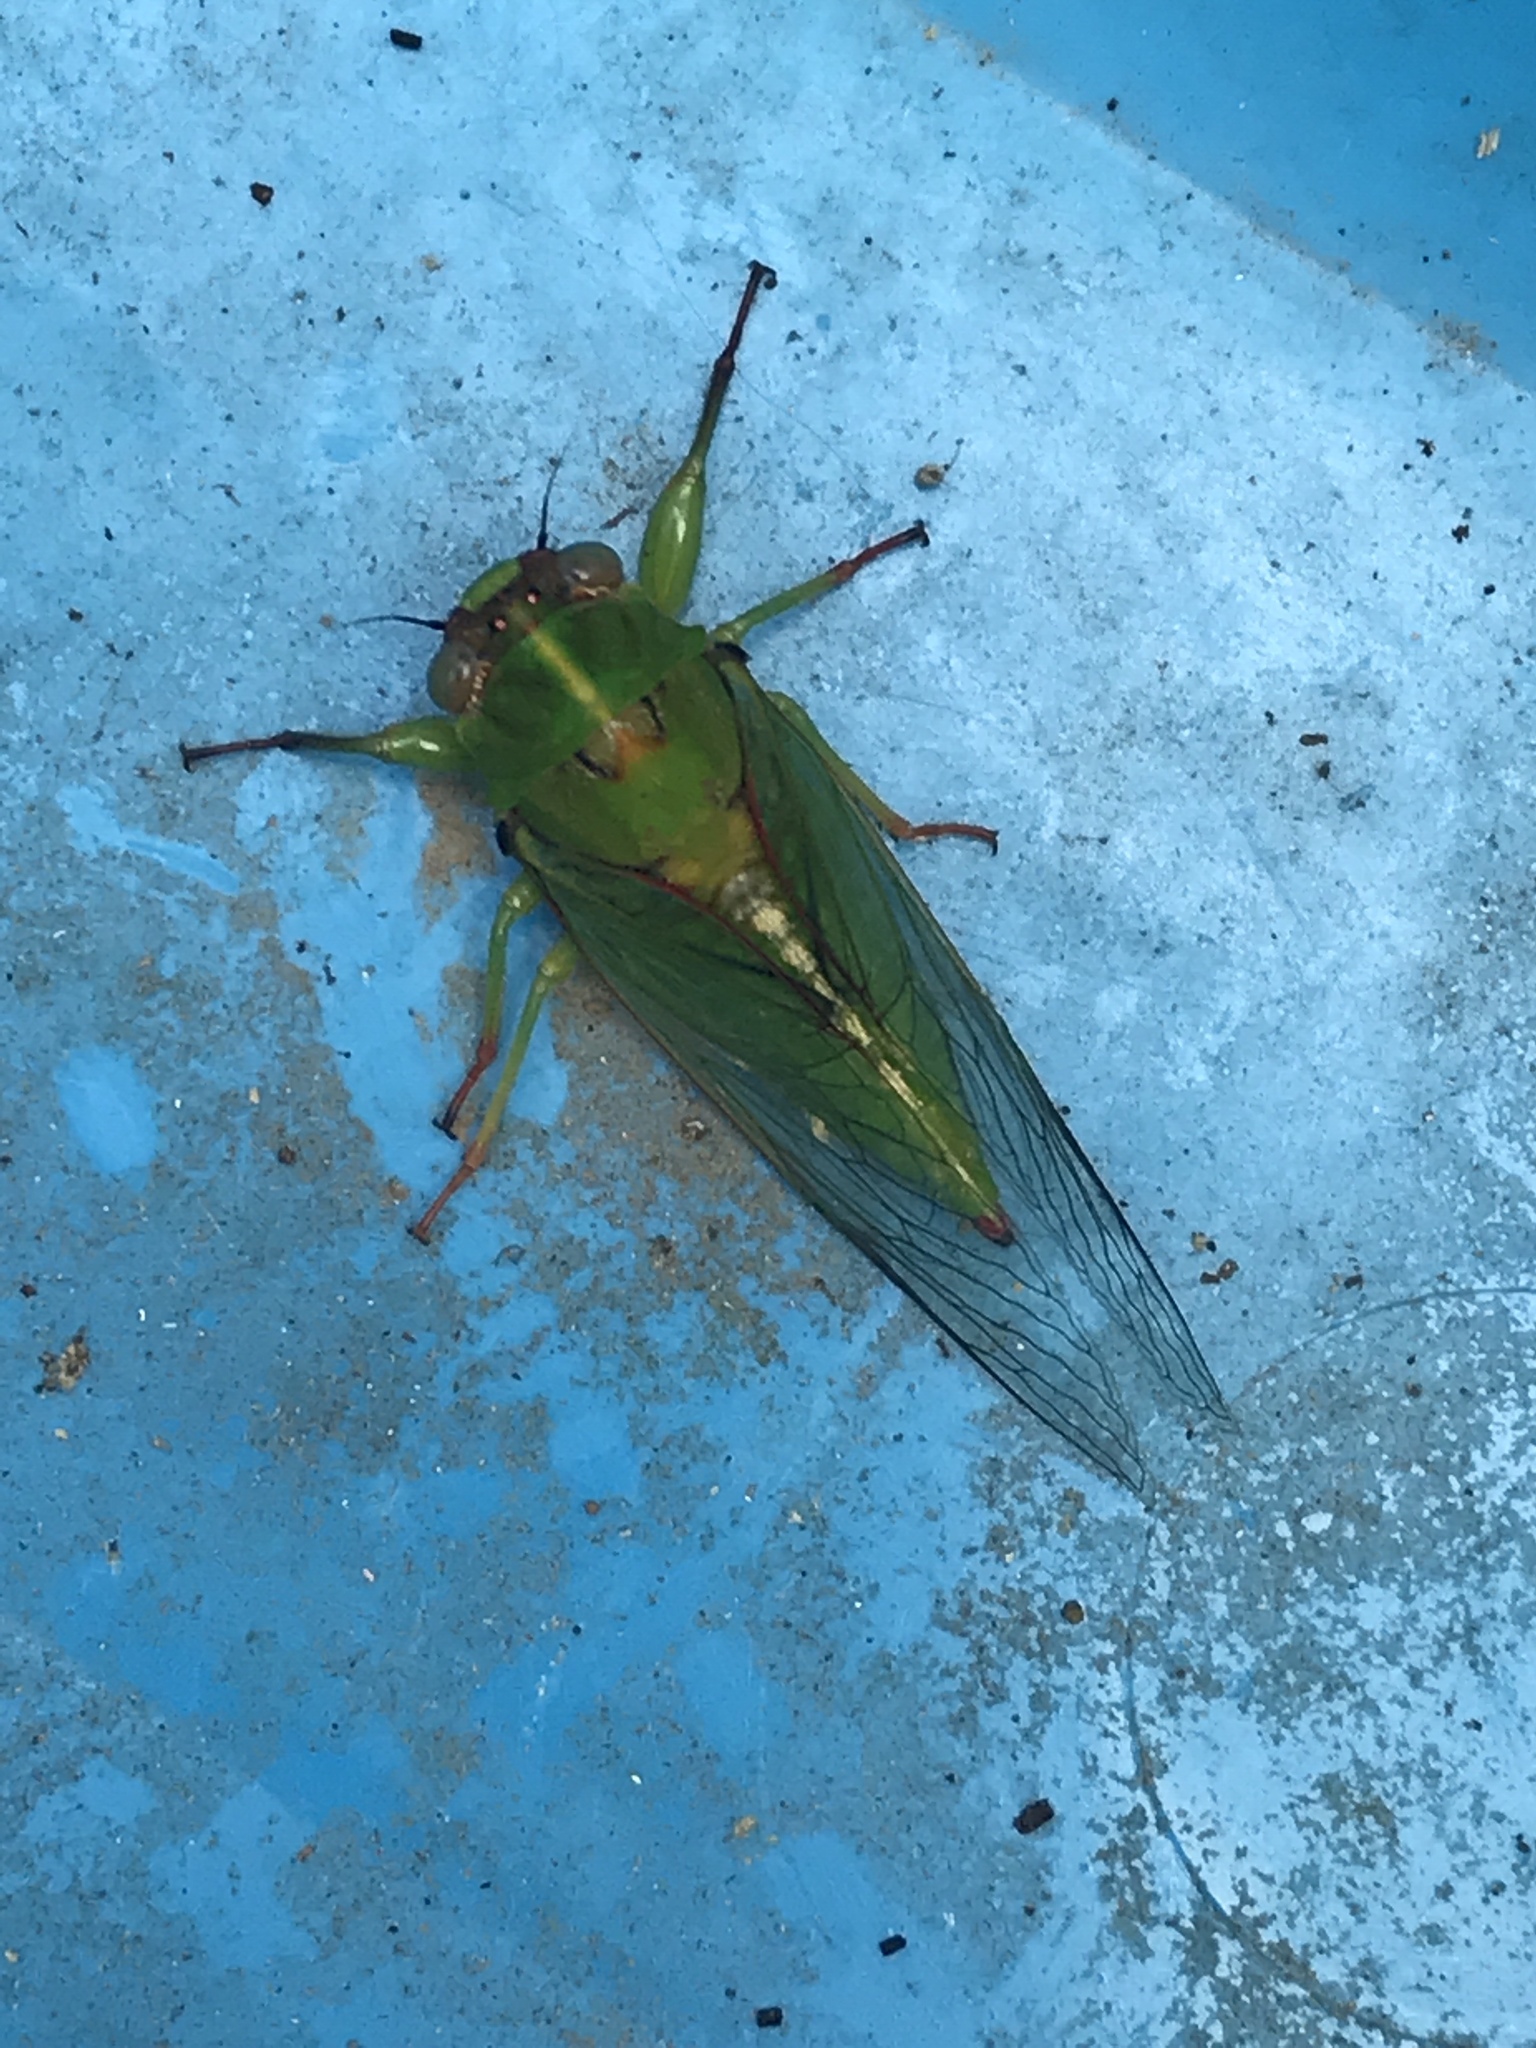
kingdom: Animalia
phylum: Arthropoda
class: Insecta
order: Hemiptera
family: Cicadidae
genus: Kikihia
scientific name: Kikihia ochrina
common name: April green cicada
